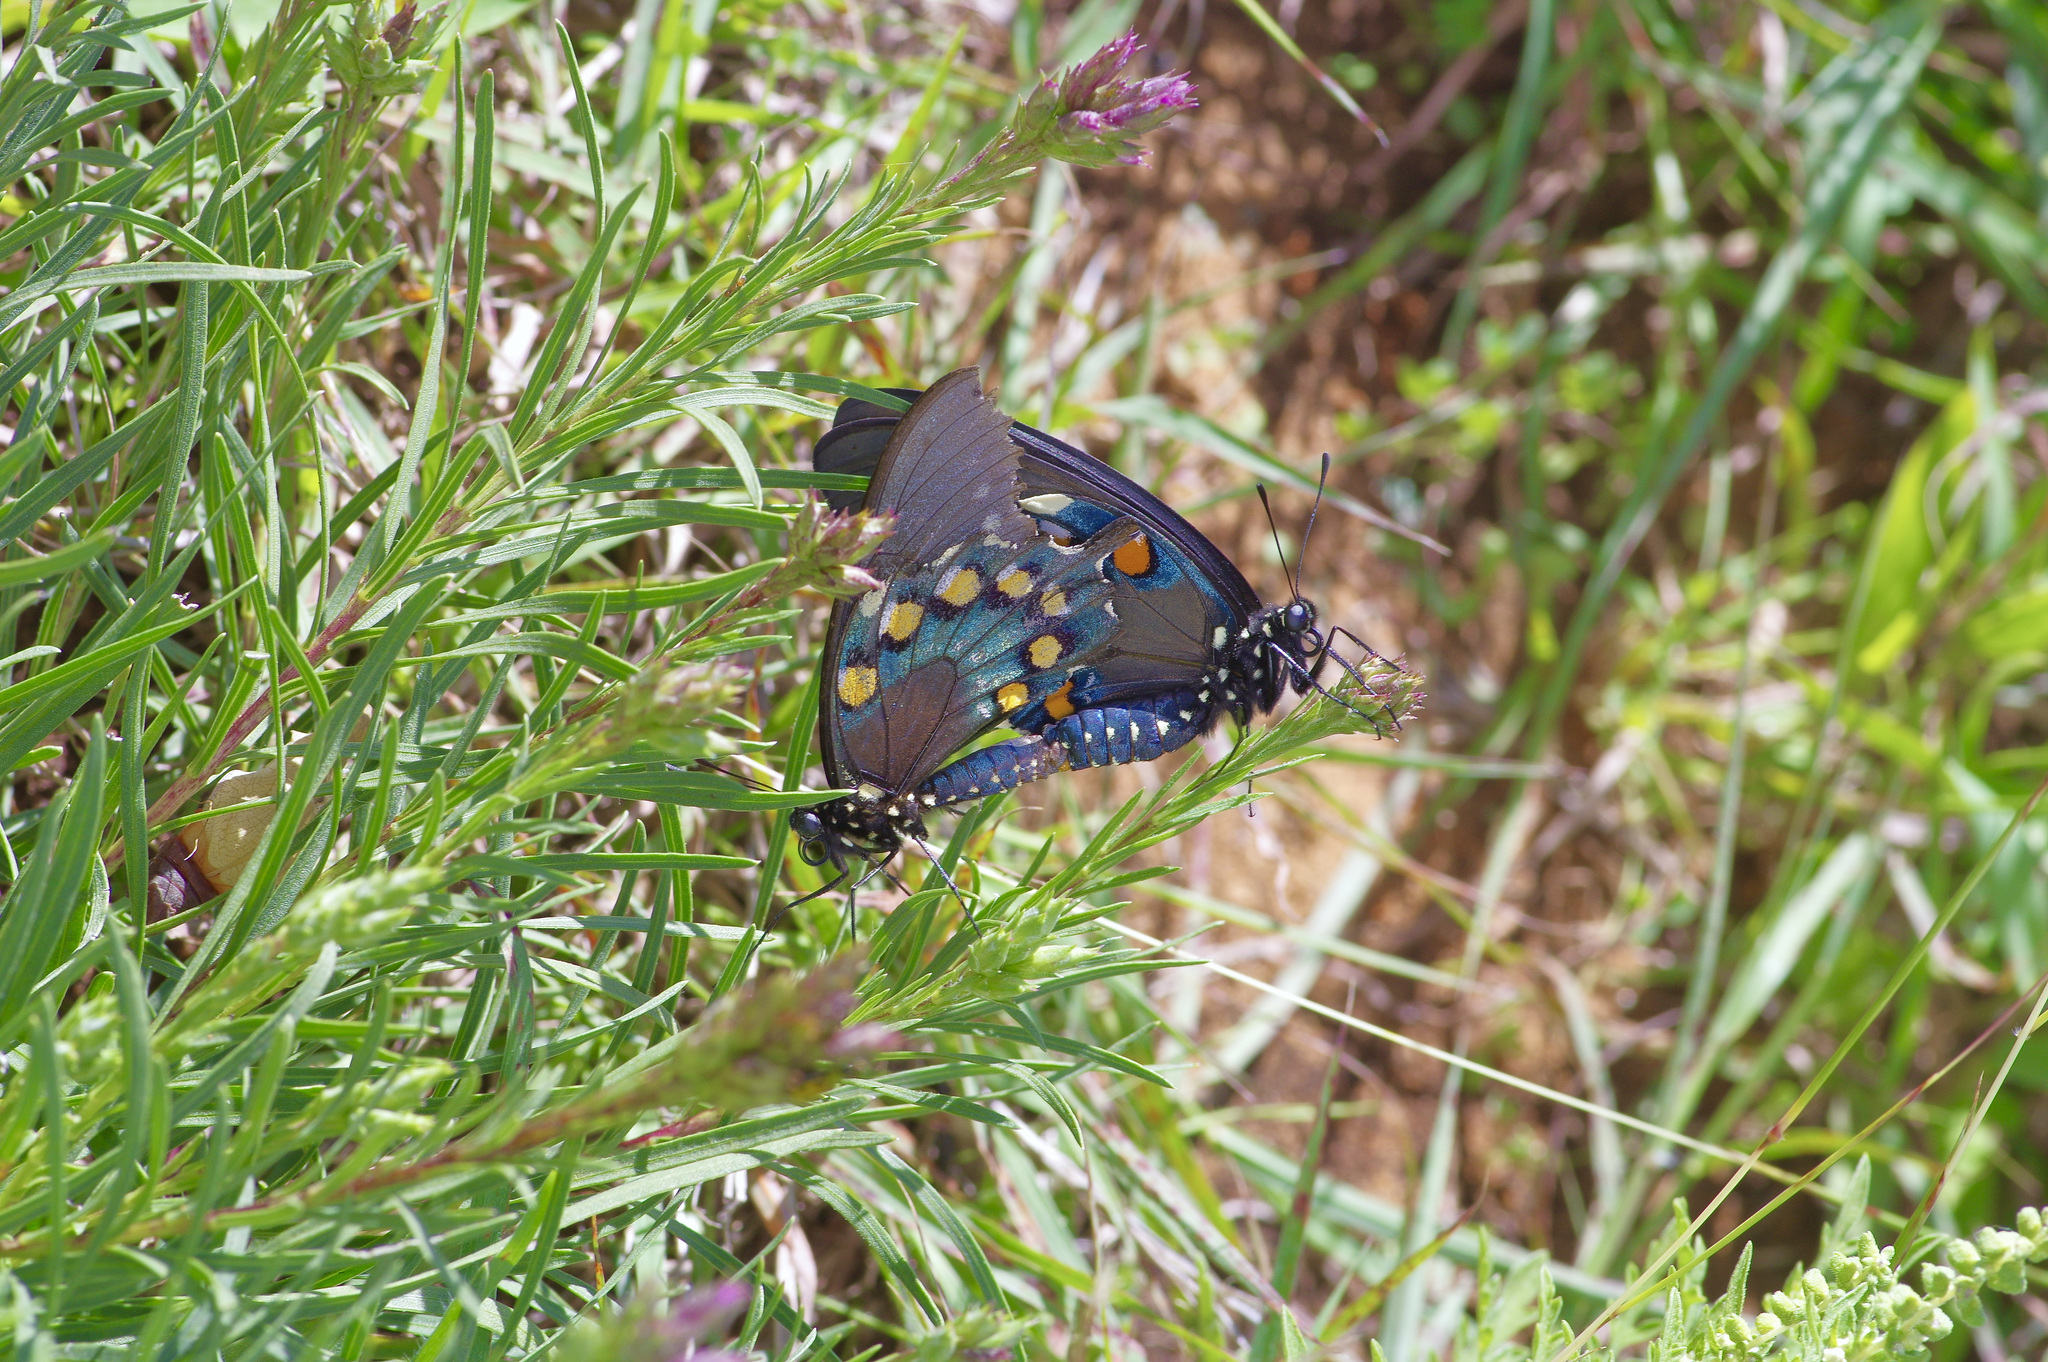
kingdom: Animalia
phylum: Arthropoda
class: Insecta
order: Lepidoptera
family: Papilionidae
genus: Battus
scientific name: Battus philenor
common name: Pipevine swallowtail
